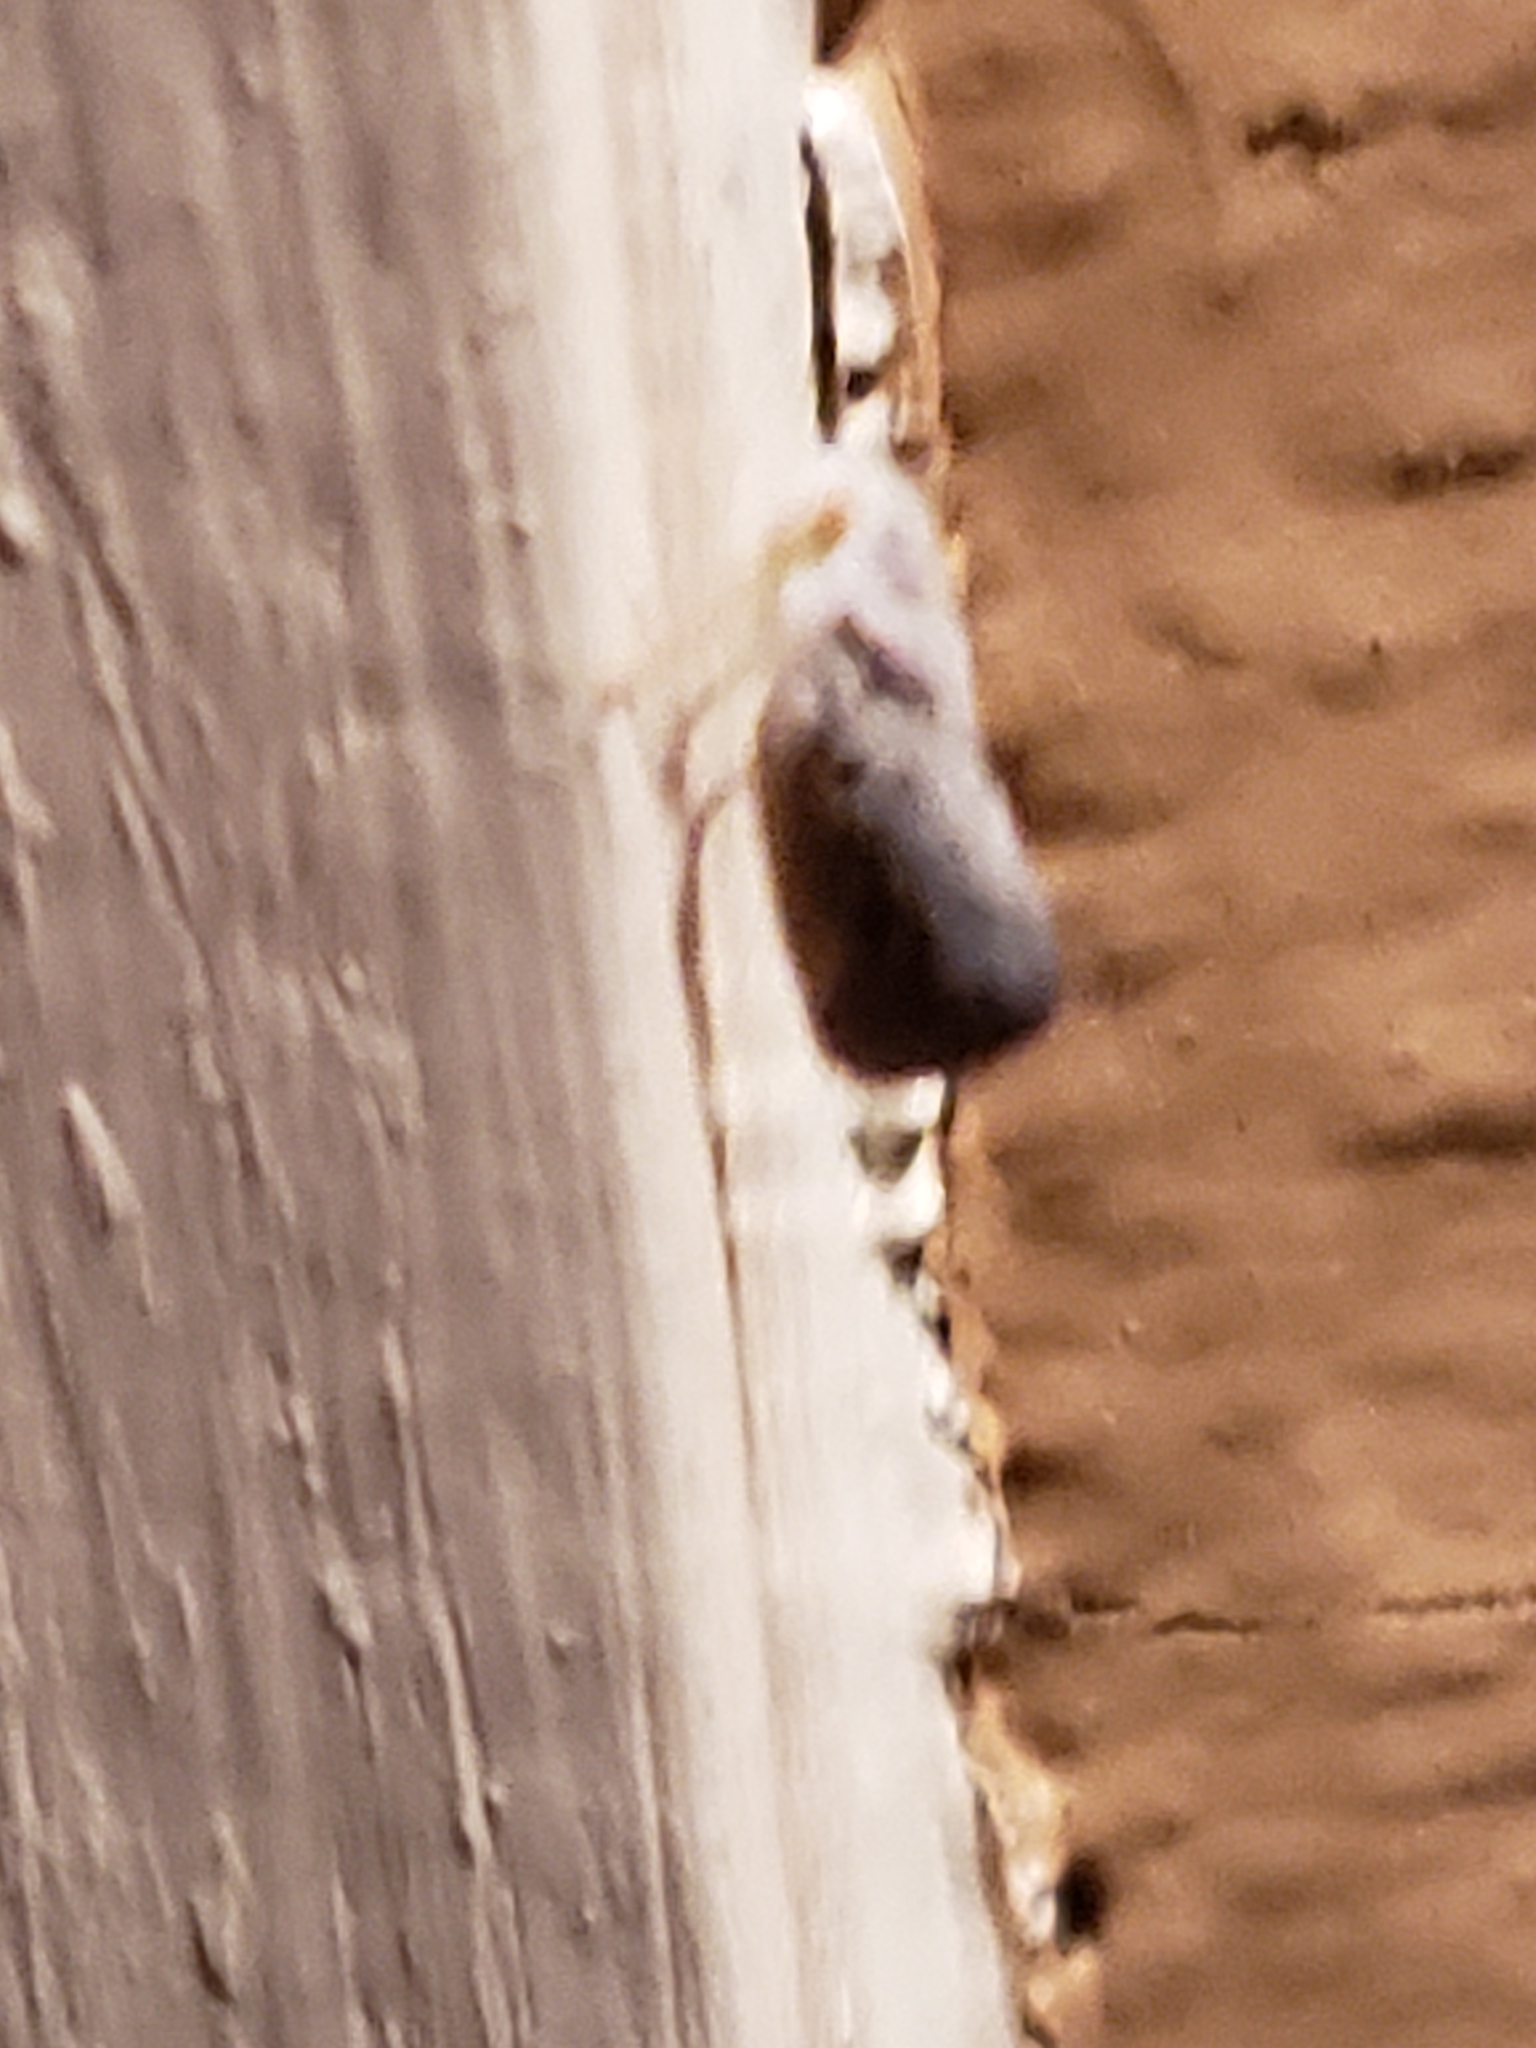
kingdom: Animalia
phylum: Arthropoda
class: Insecta
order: Hemiptera
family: Flatidae
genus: Metcalfa
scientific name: Metcalfa pruinosa
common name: Citrus flatid planthopper
